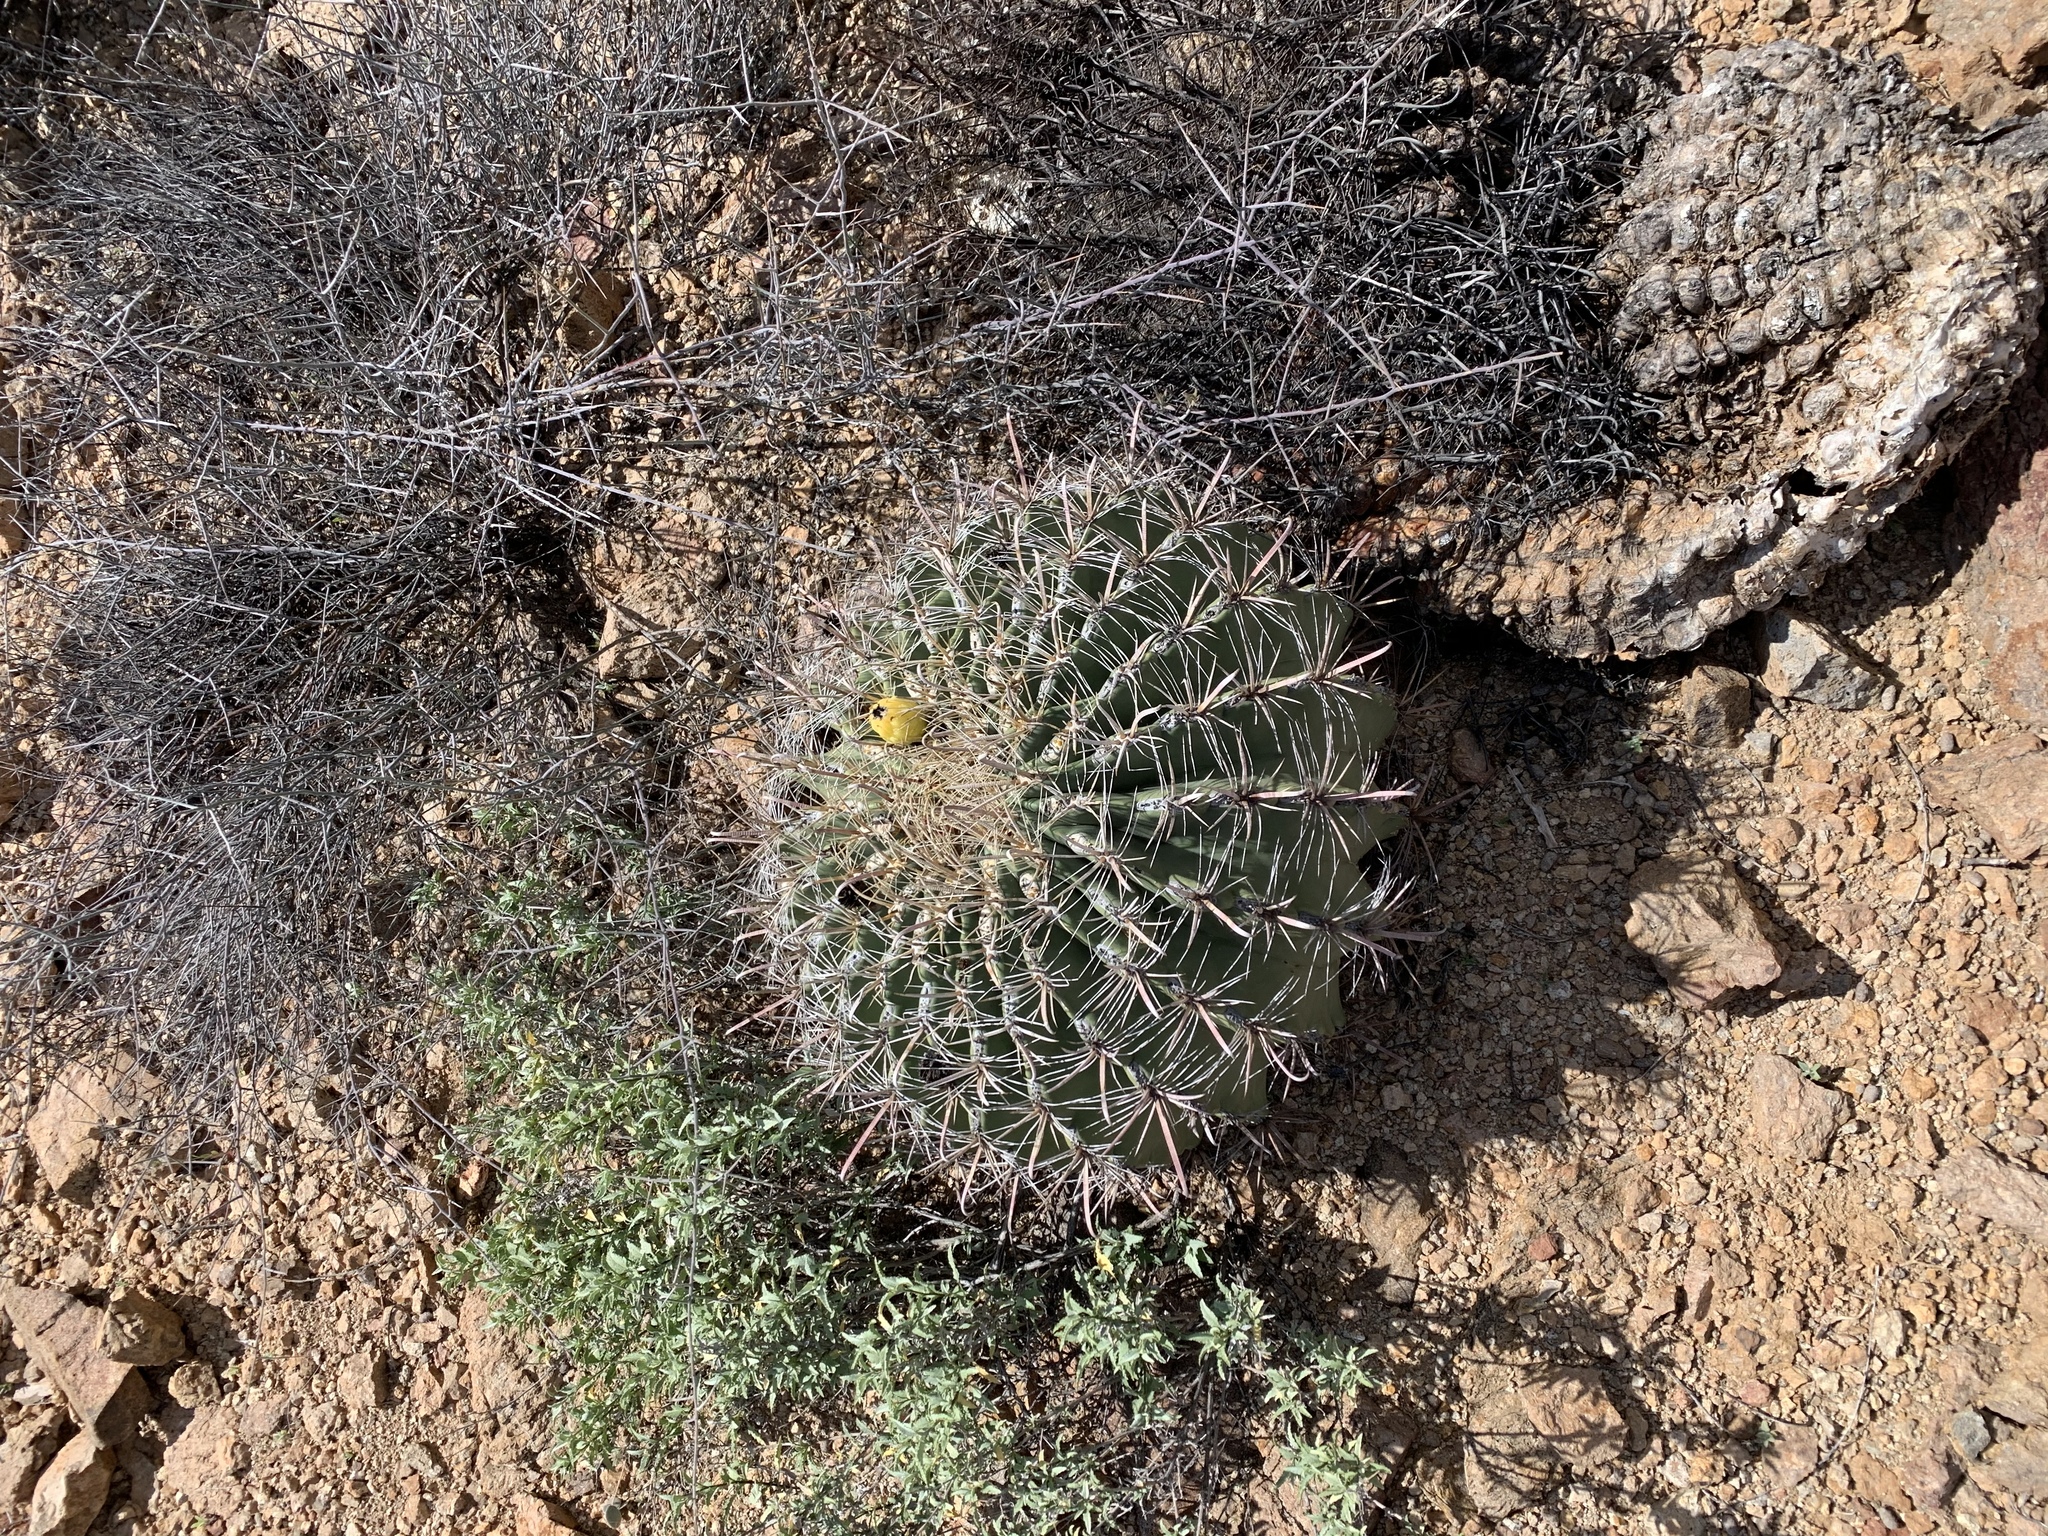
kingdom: Plantae
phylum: Tracheophyta
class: Magnoliopsida
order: Caryophyllales
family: Cactaceae
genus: Ferocactus
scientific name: Ferocactus wislizeni
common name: Candy barrel cactus
